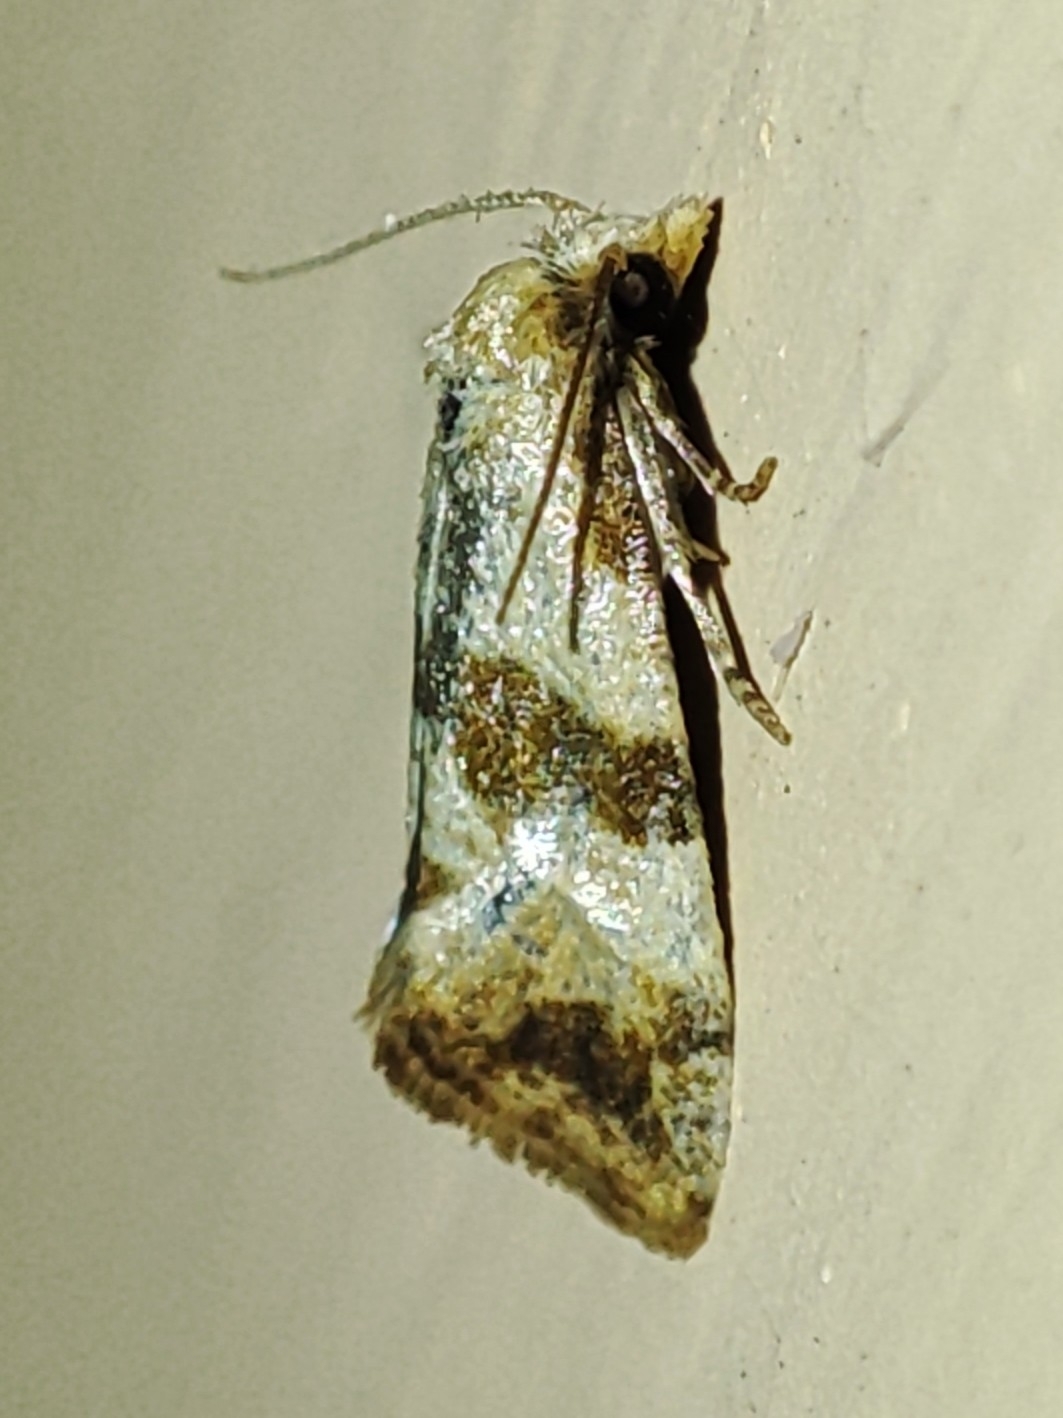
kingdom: Animalia
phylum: Arthropoda
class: Insecta
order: Lepidoptera
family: Tortricidae
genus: Phalonidia
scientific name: Phalonidia contractana
